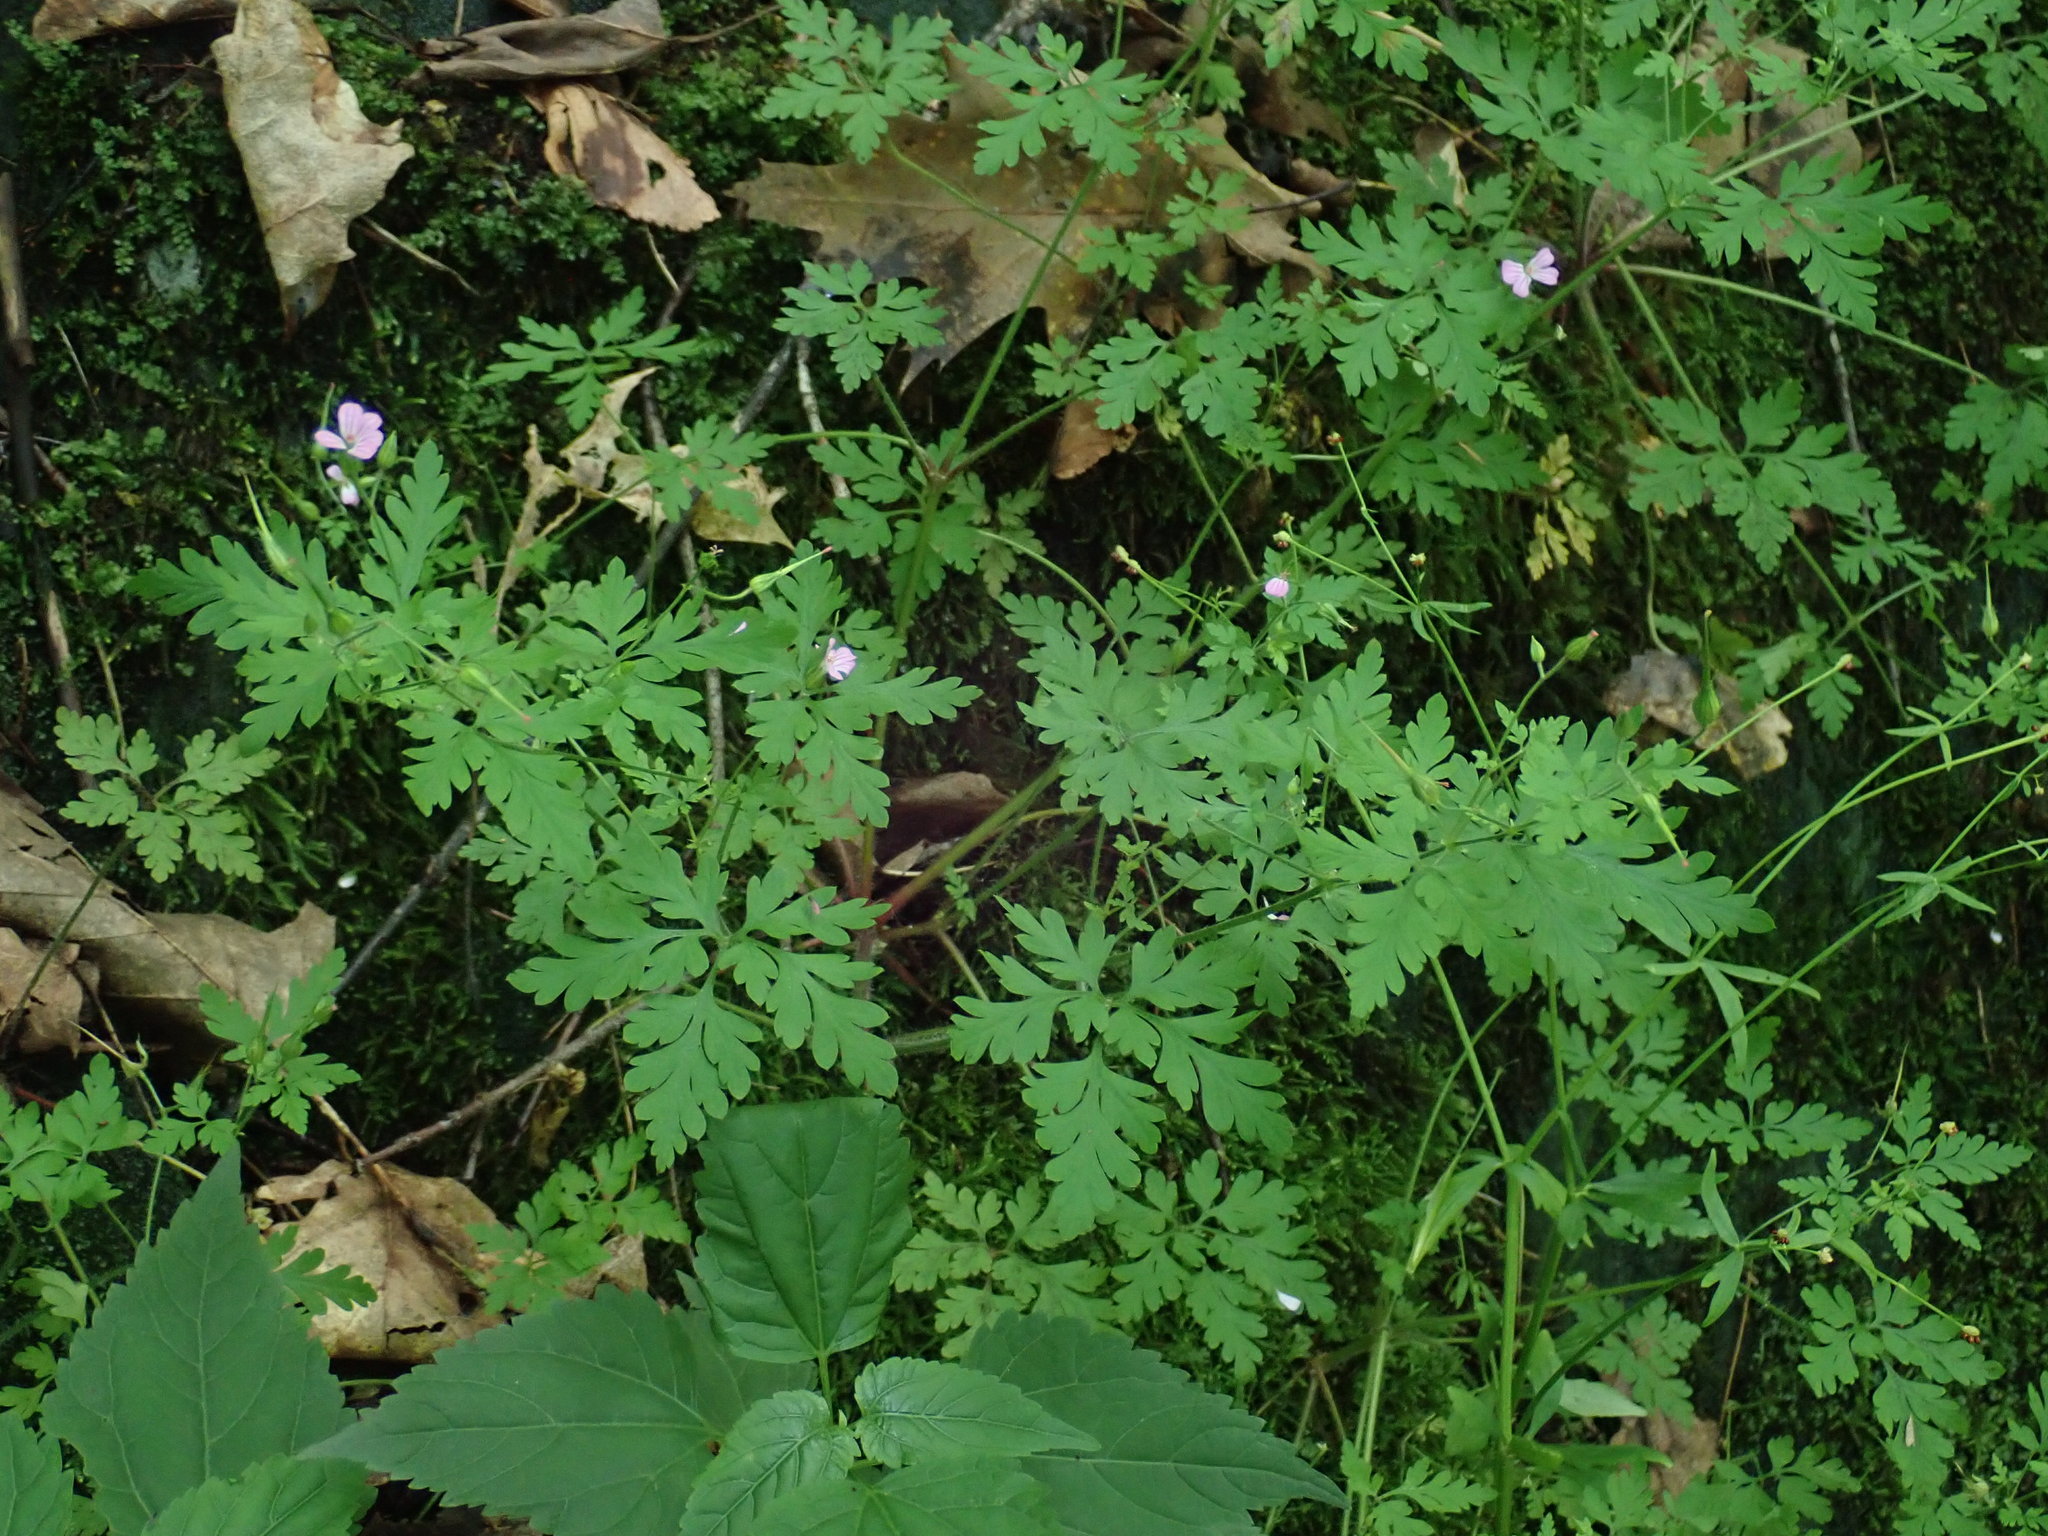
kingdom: Plantae
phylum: Tracheophyta
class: Magnoliopsida
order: Geraniales
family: Geraniaceae
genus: Geranium
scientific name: Geranium robertianum
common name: Herb-robert
